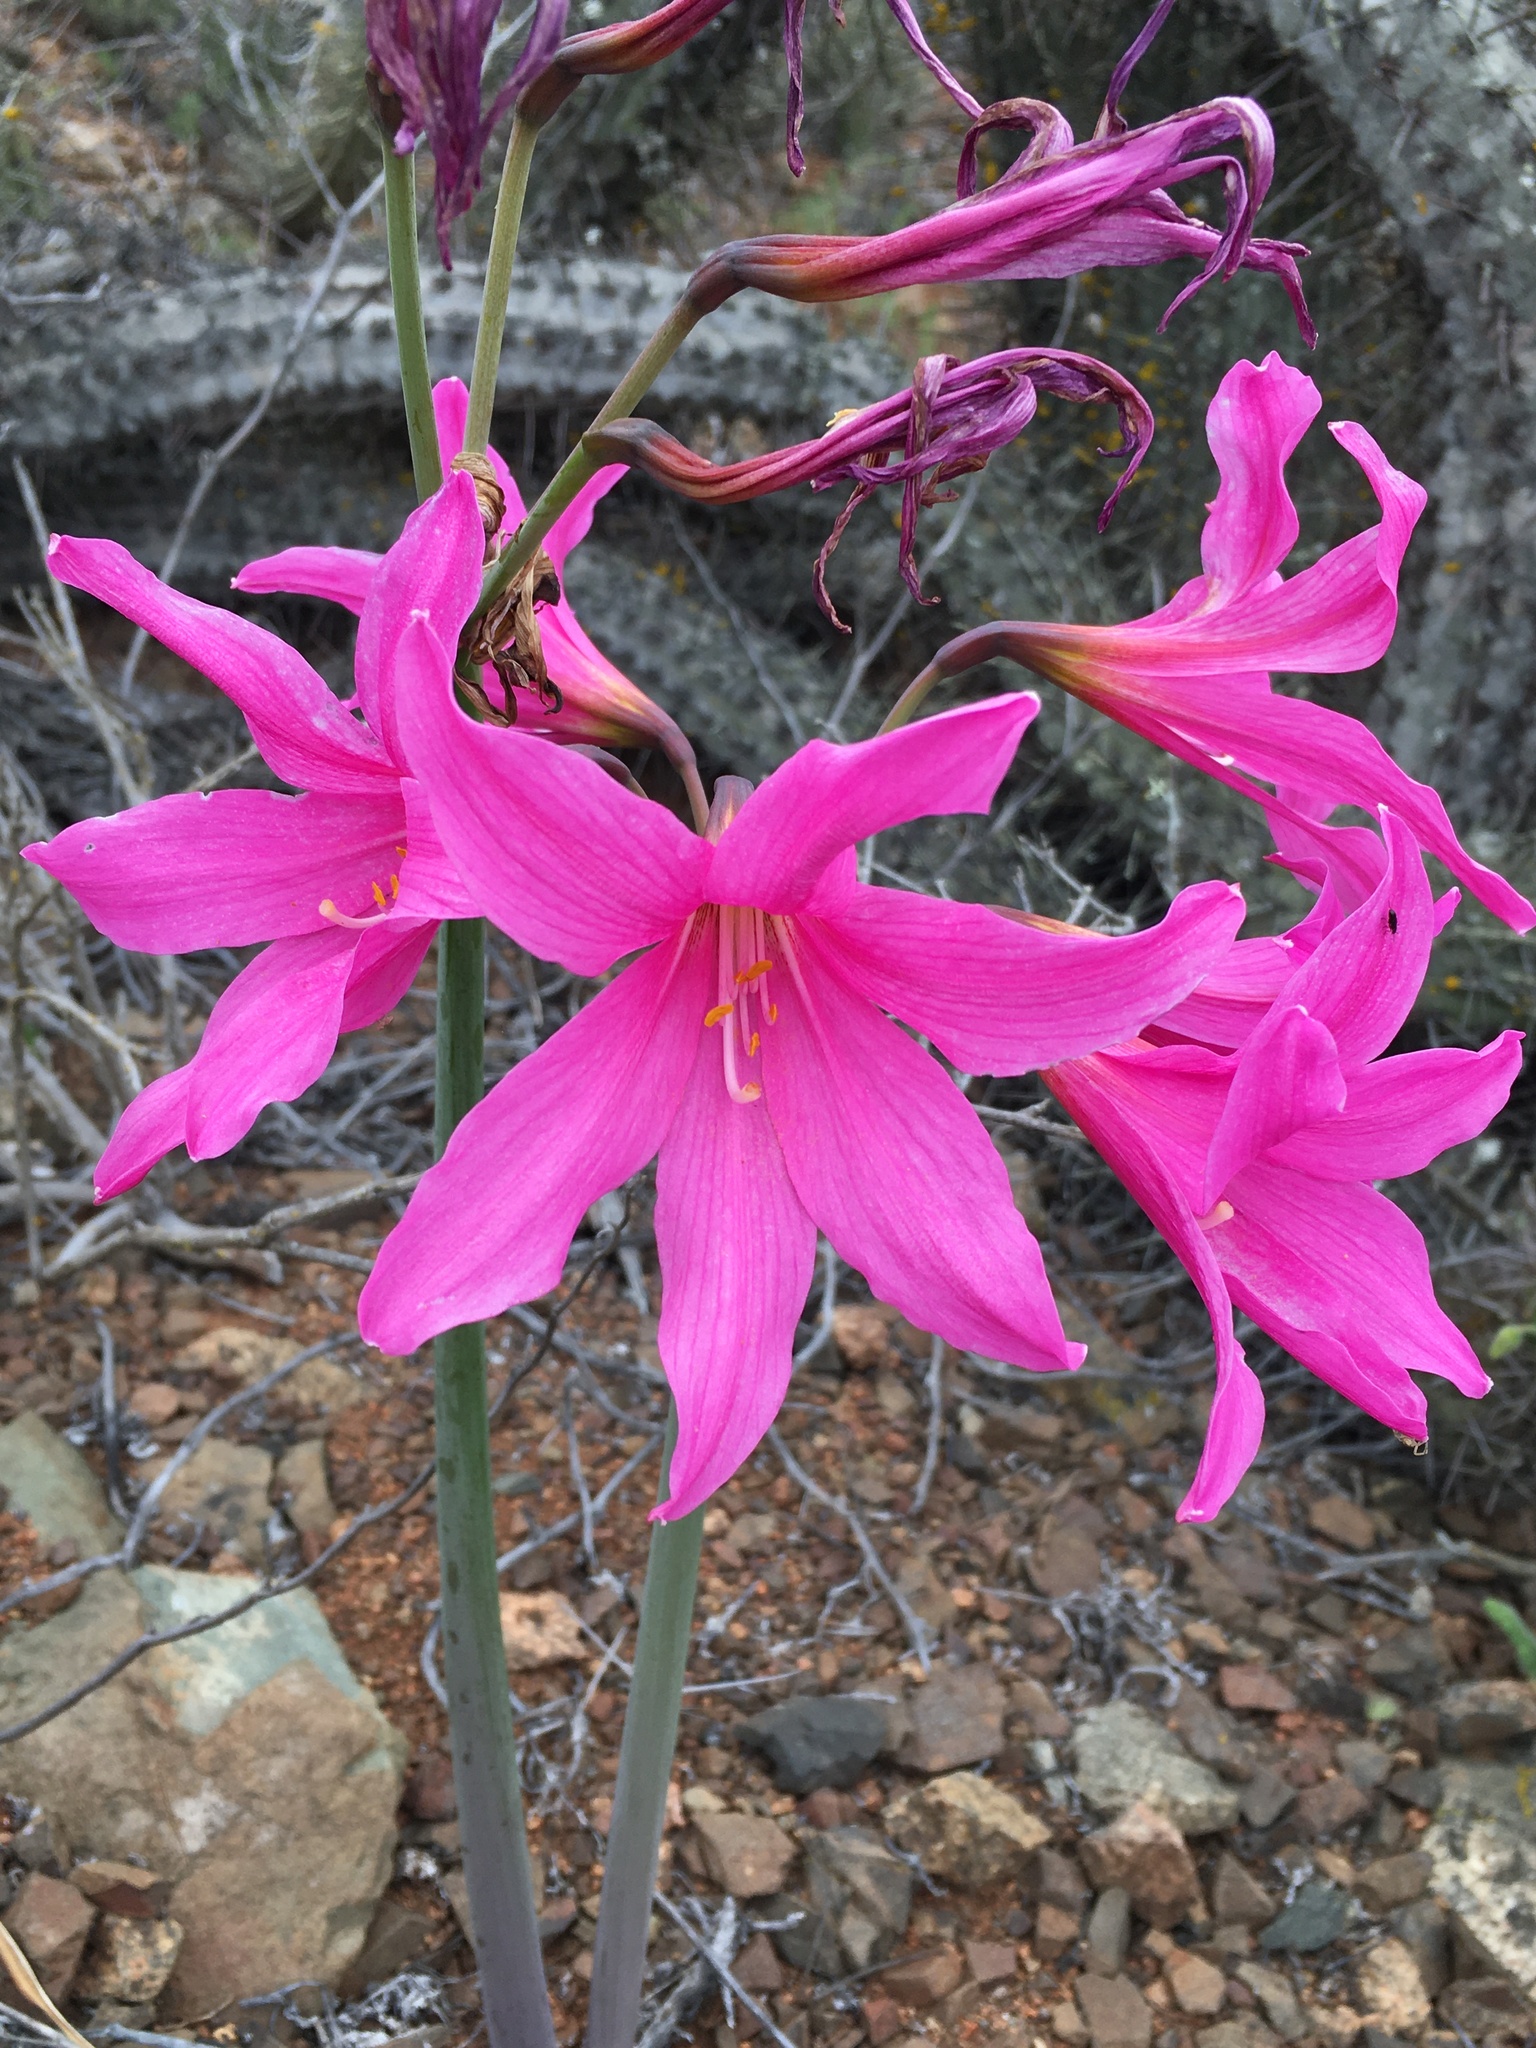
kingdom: Plantae
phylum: Tracheophyta
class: Liliopsida
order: Asparagales
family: Amaryllidaceae
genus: Paposoa
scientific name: Paposoa laeta
